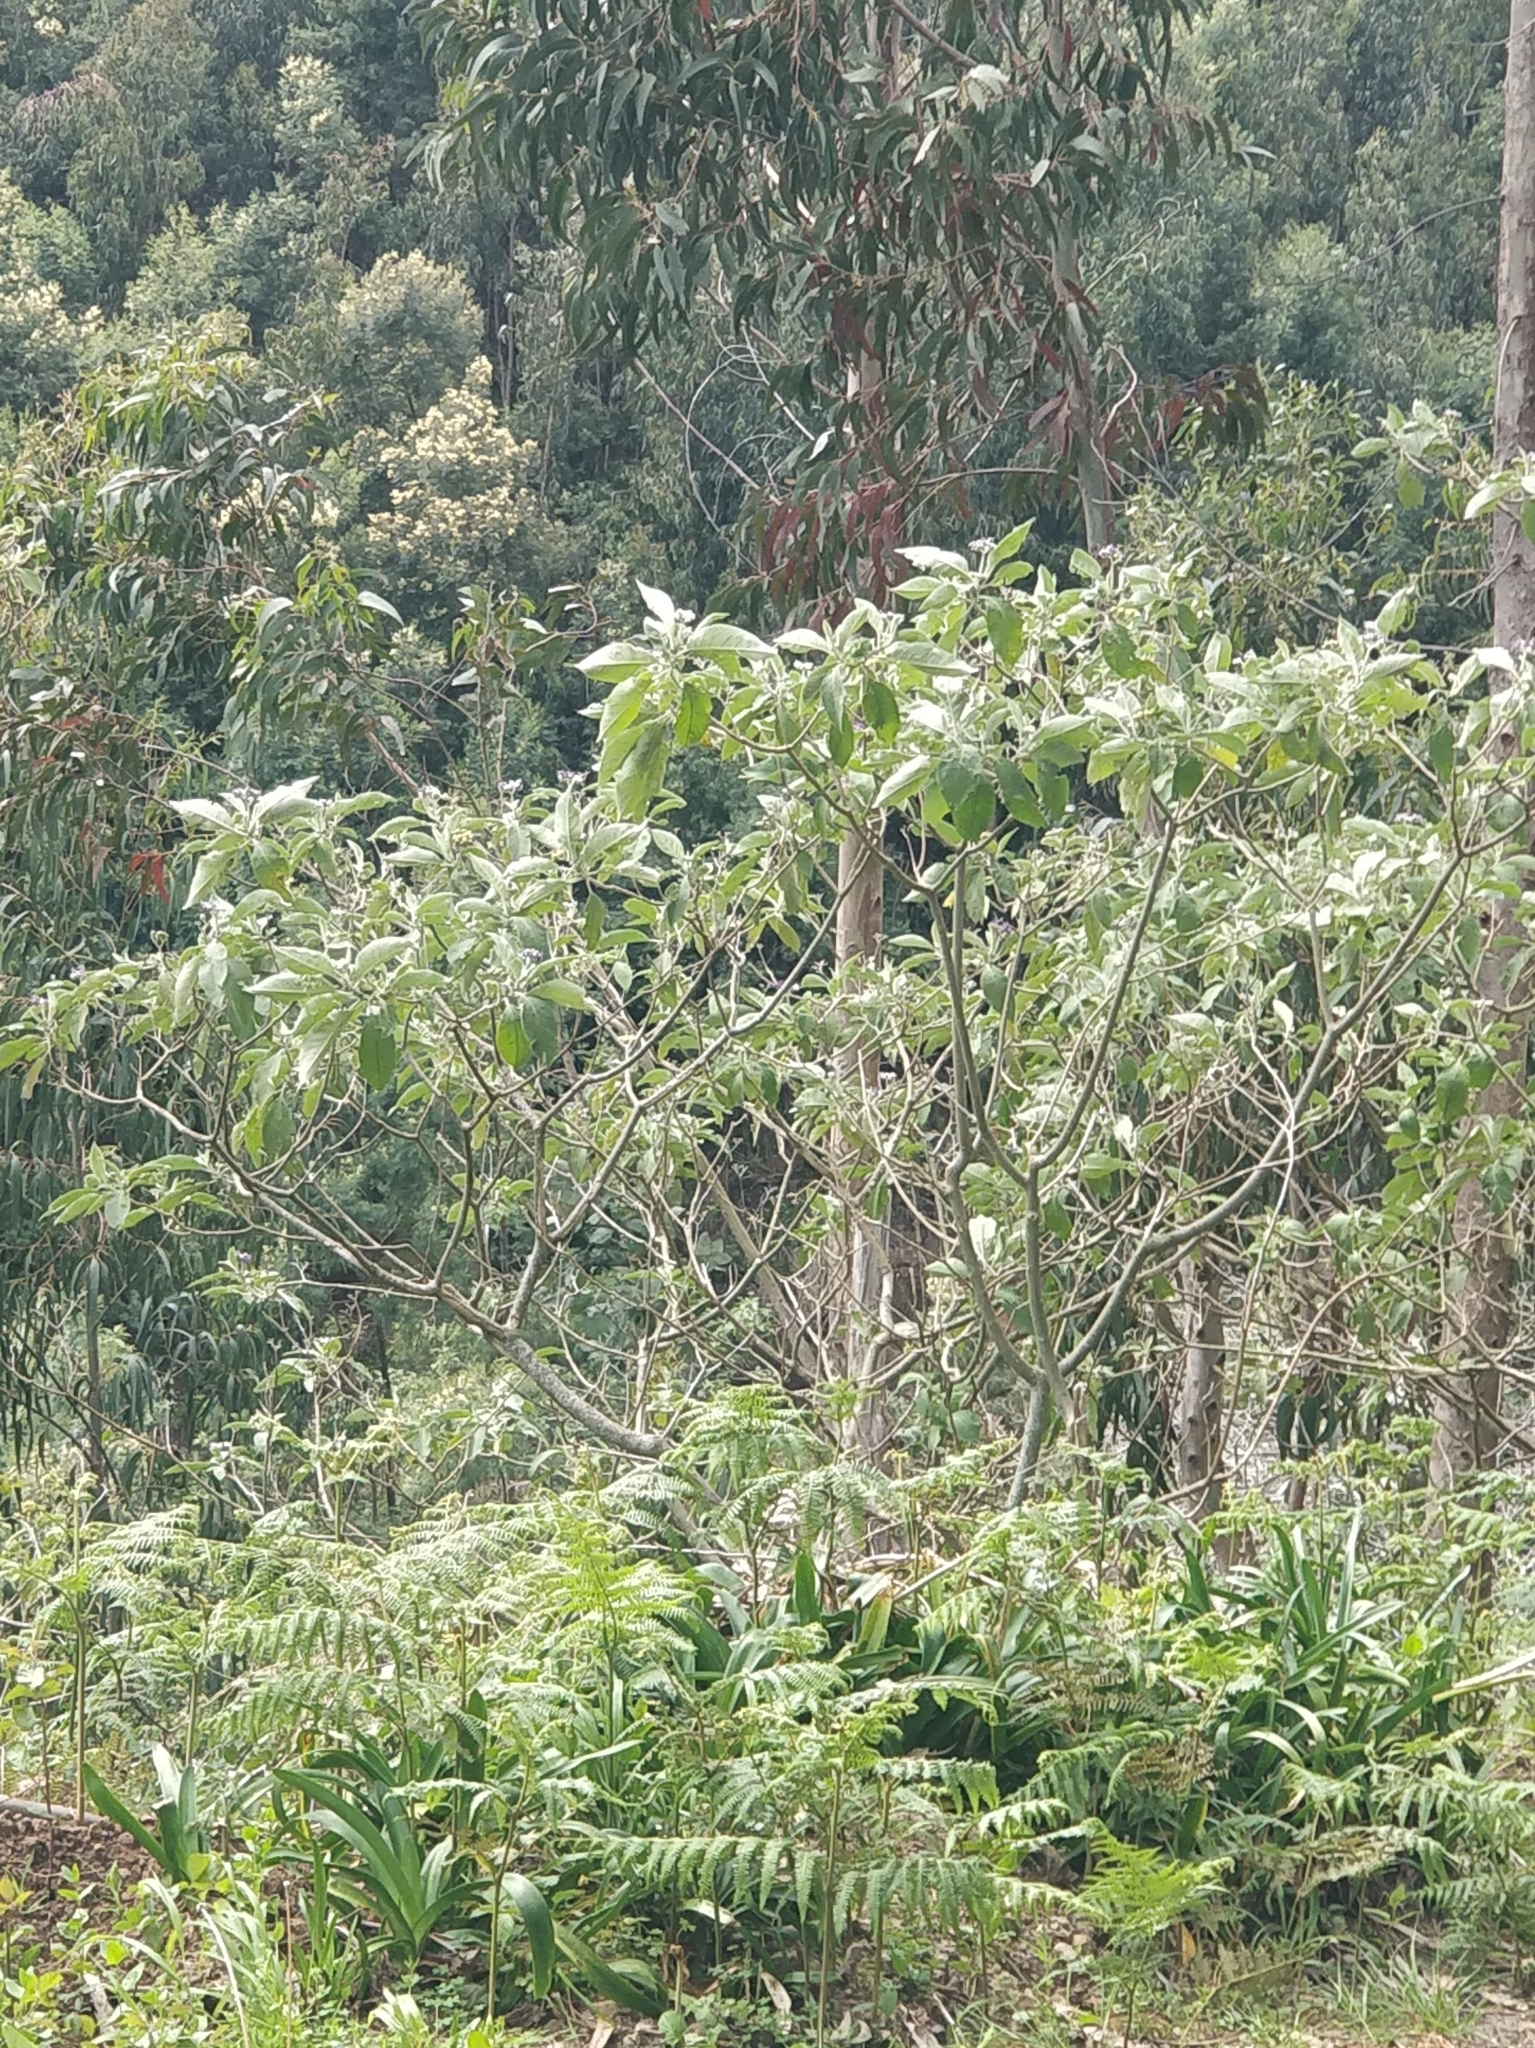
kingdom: Plantae
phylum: Tracheophyta
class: Magnoliopsida
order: Solanales
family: Solanaceae
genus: Solanum
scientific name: Solanum mauritianum
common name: Earleaf nightshade
